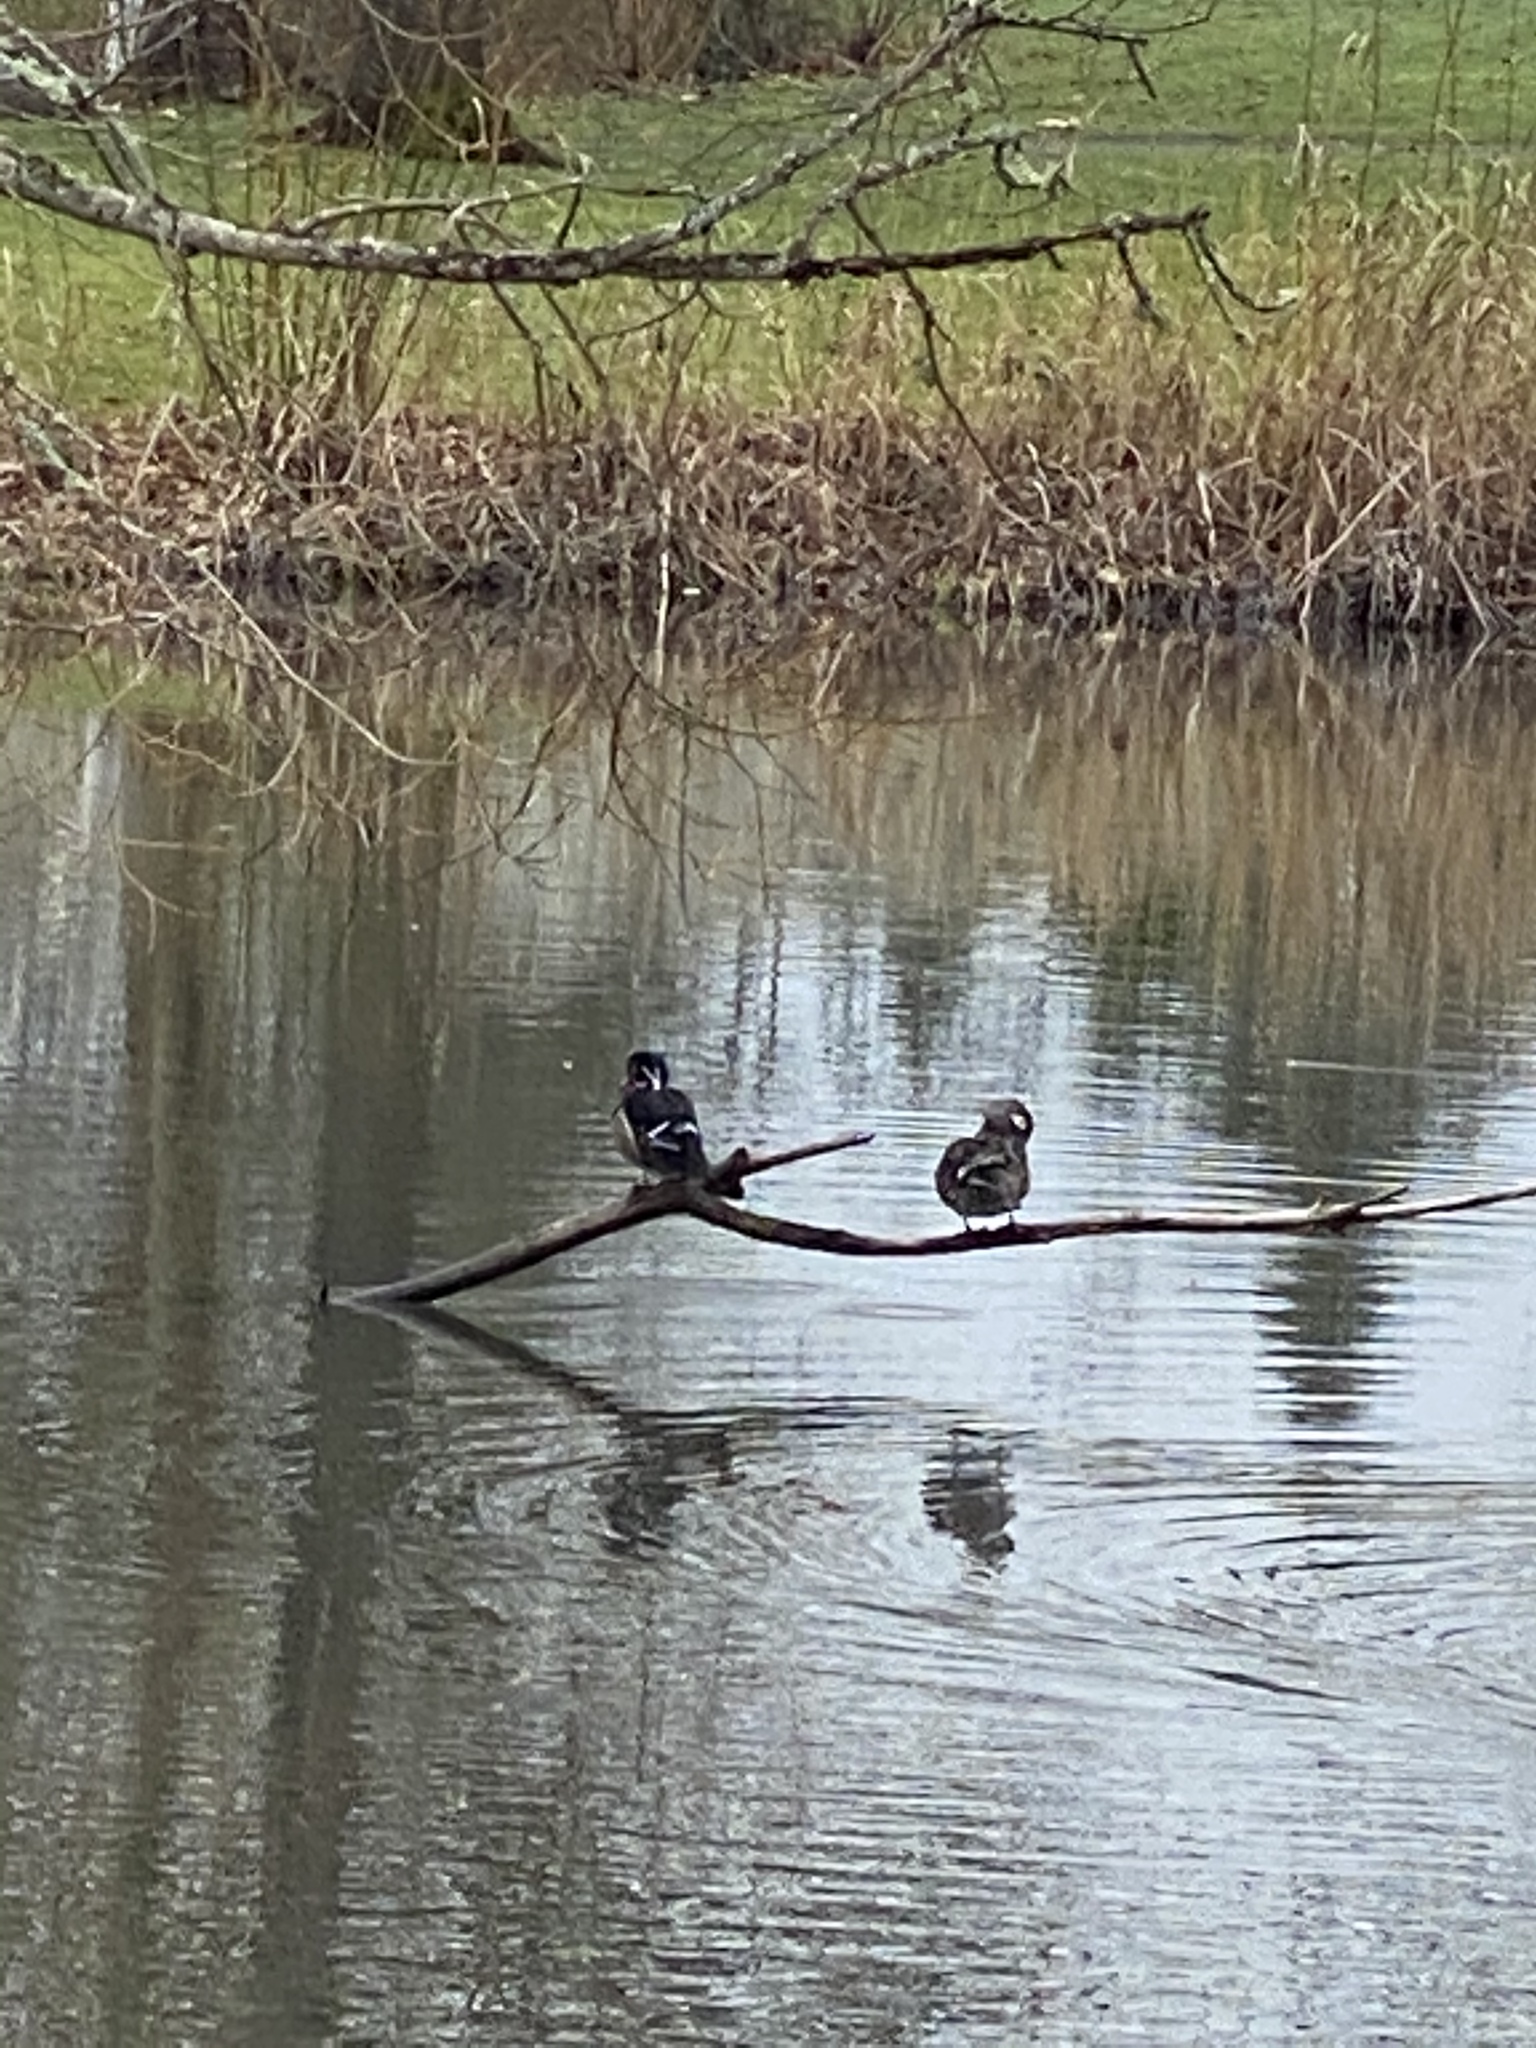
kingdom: Animalia
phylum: Chordata
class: Aves
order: Anseriformes
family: Anatidae
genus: Aix
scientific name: Aix sponsa
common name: Wood duck
